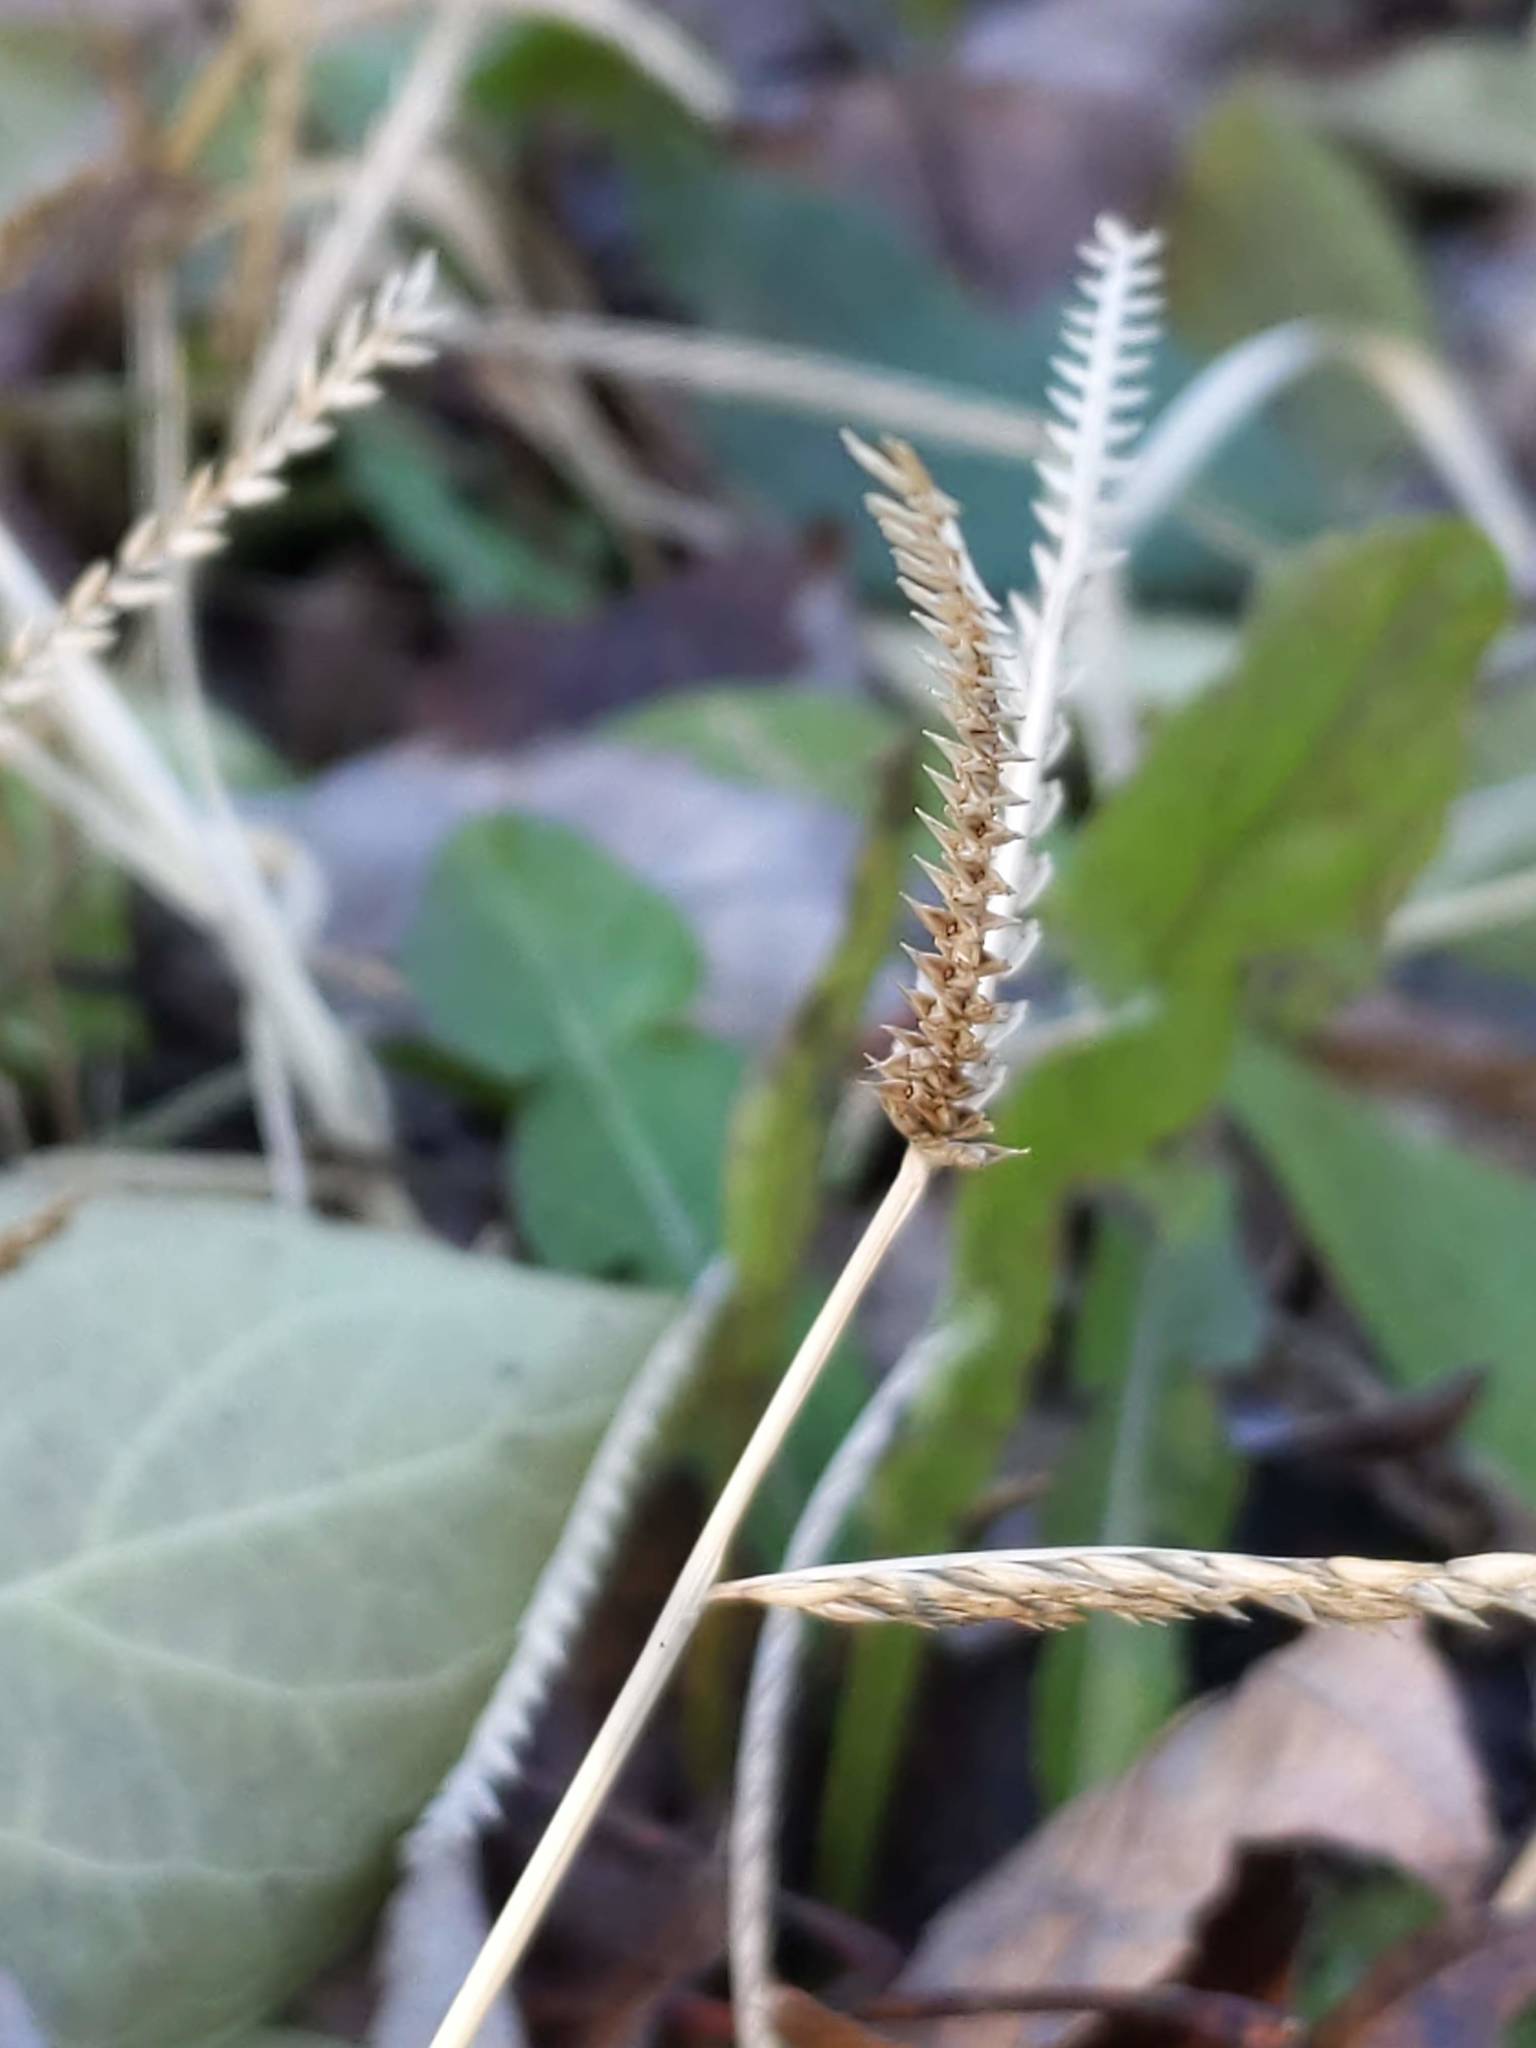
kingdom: Plantae
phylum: Tracheophyta
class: Liliopsida
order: Poales
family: Poaceae
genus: Eleusine
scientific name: Eleusine indica
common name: Yard-grass
